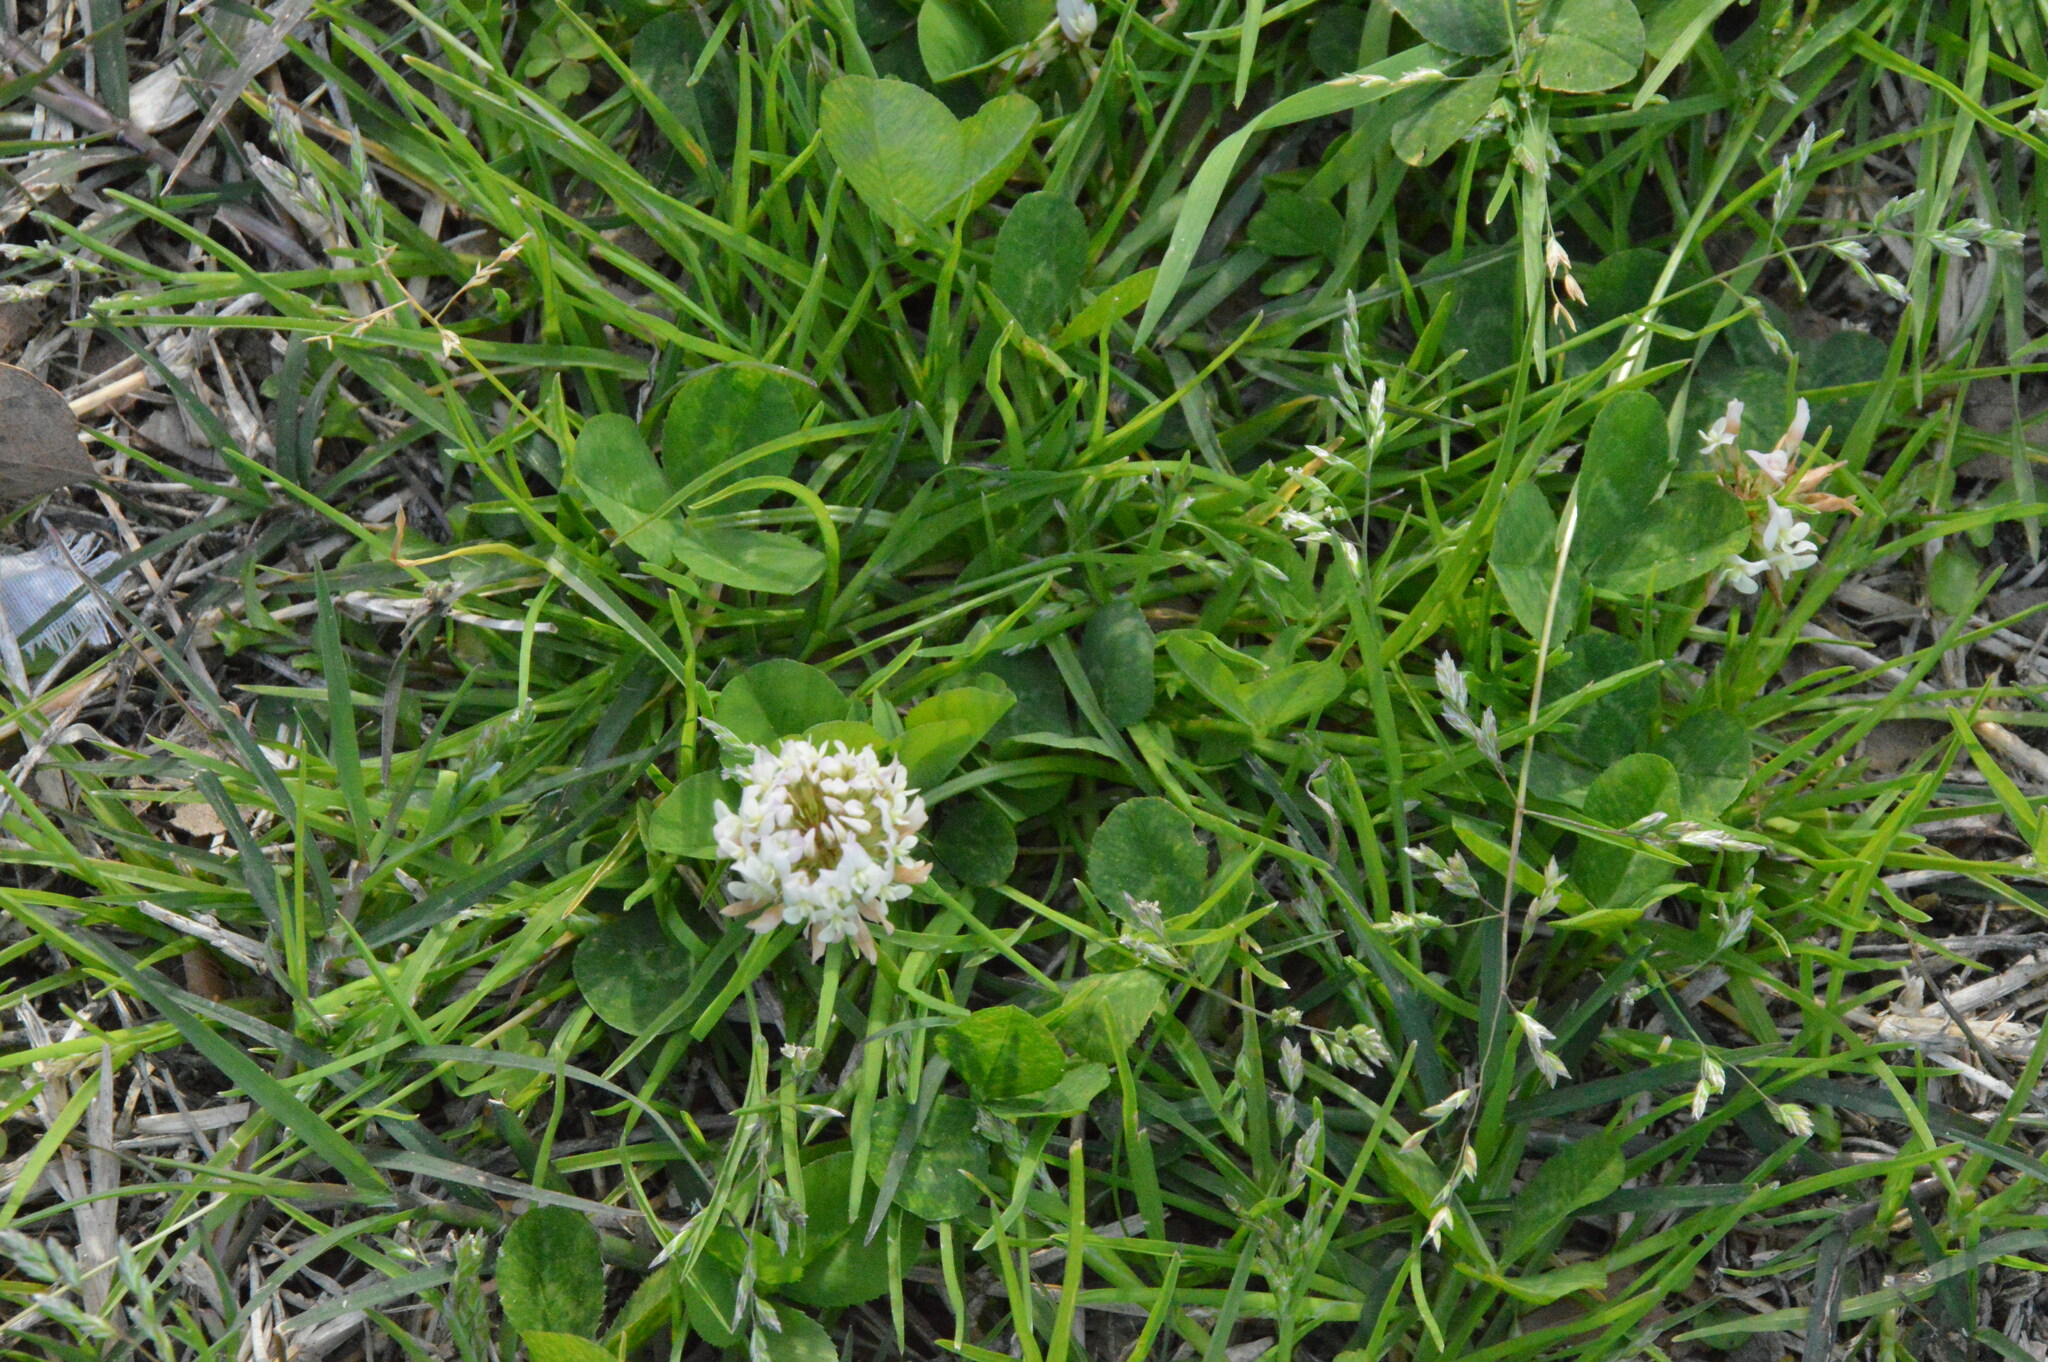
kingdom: Plantae
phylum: Tracheophyta
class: Magnoliopsida
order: Fabales
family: Fabaceae
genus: Trifolium
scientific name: Trifolium repens
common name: White clover
